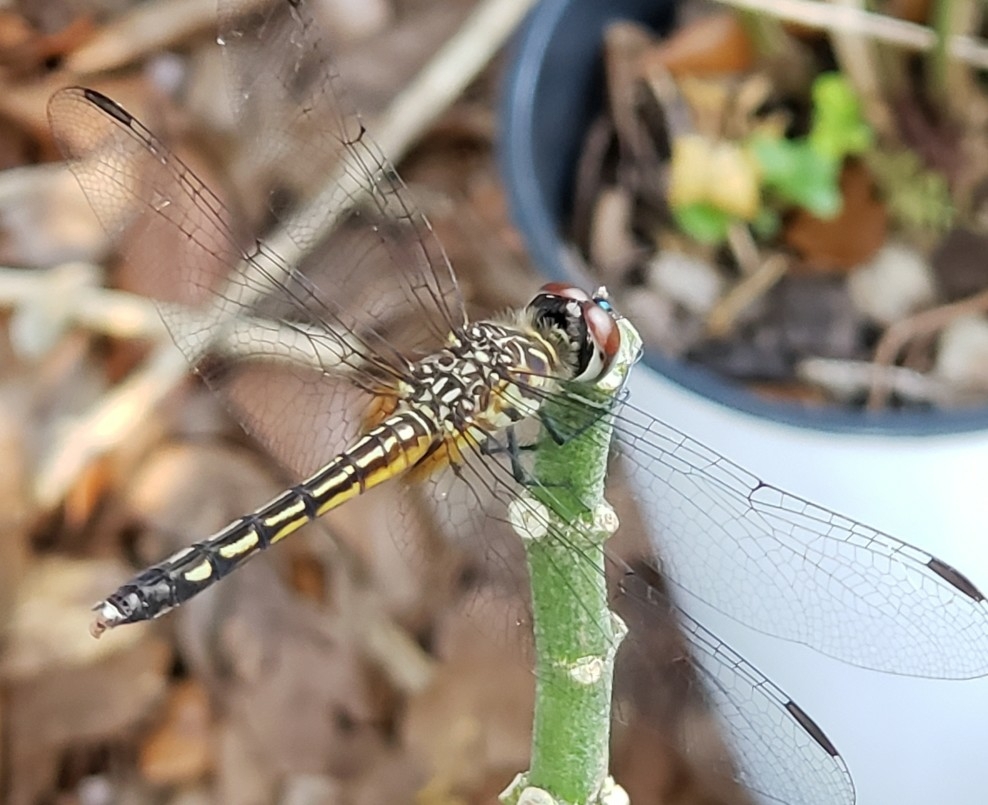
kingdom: Animalia
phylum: Arthropoda
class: Insecta
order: Odonata
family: Libellulidae
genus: Pachydiplax
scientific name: Pachydiplax longipennis
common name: Blue dasher
